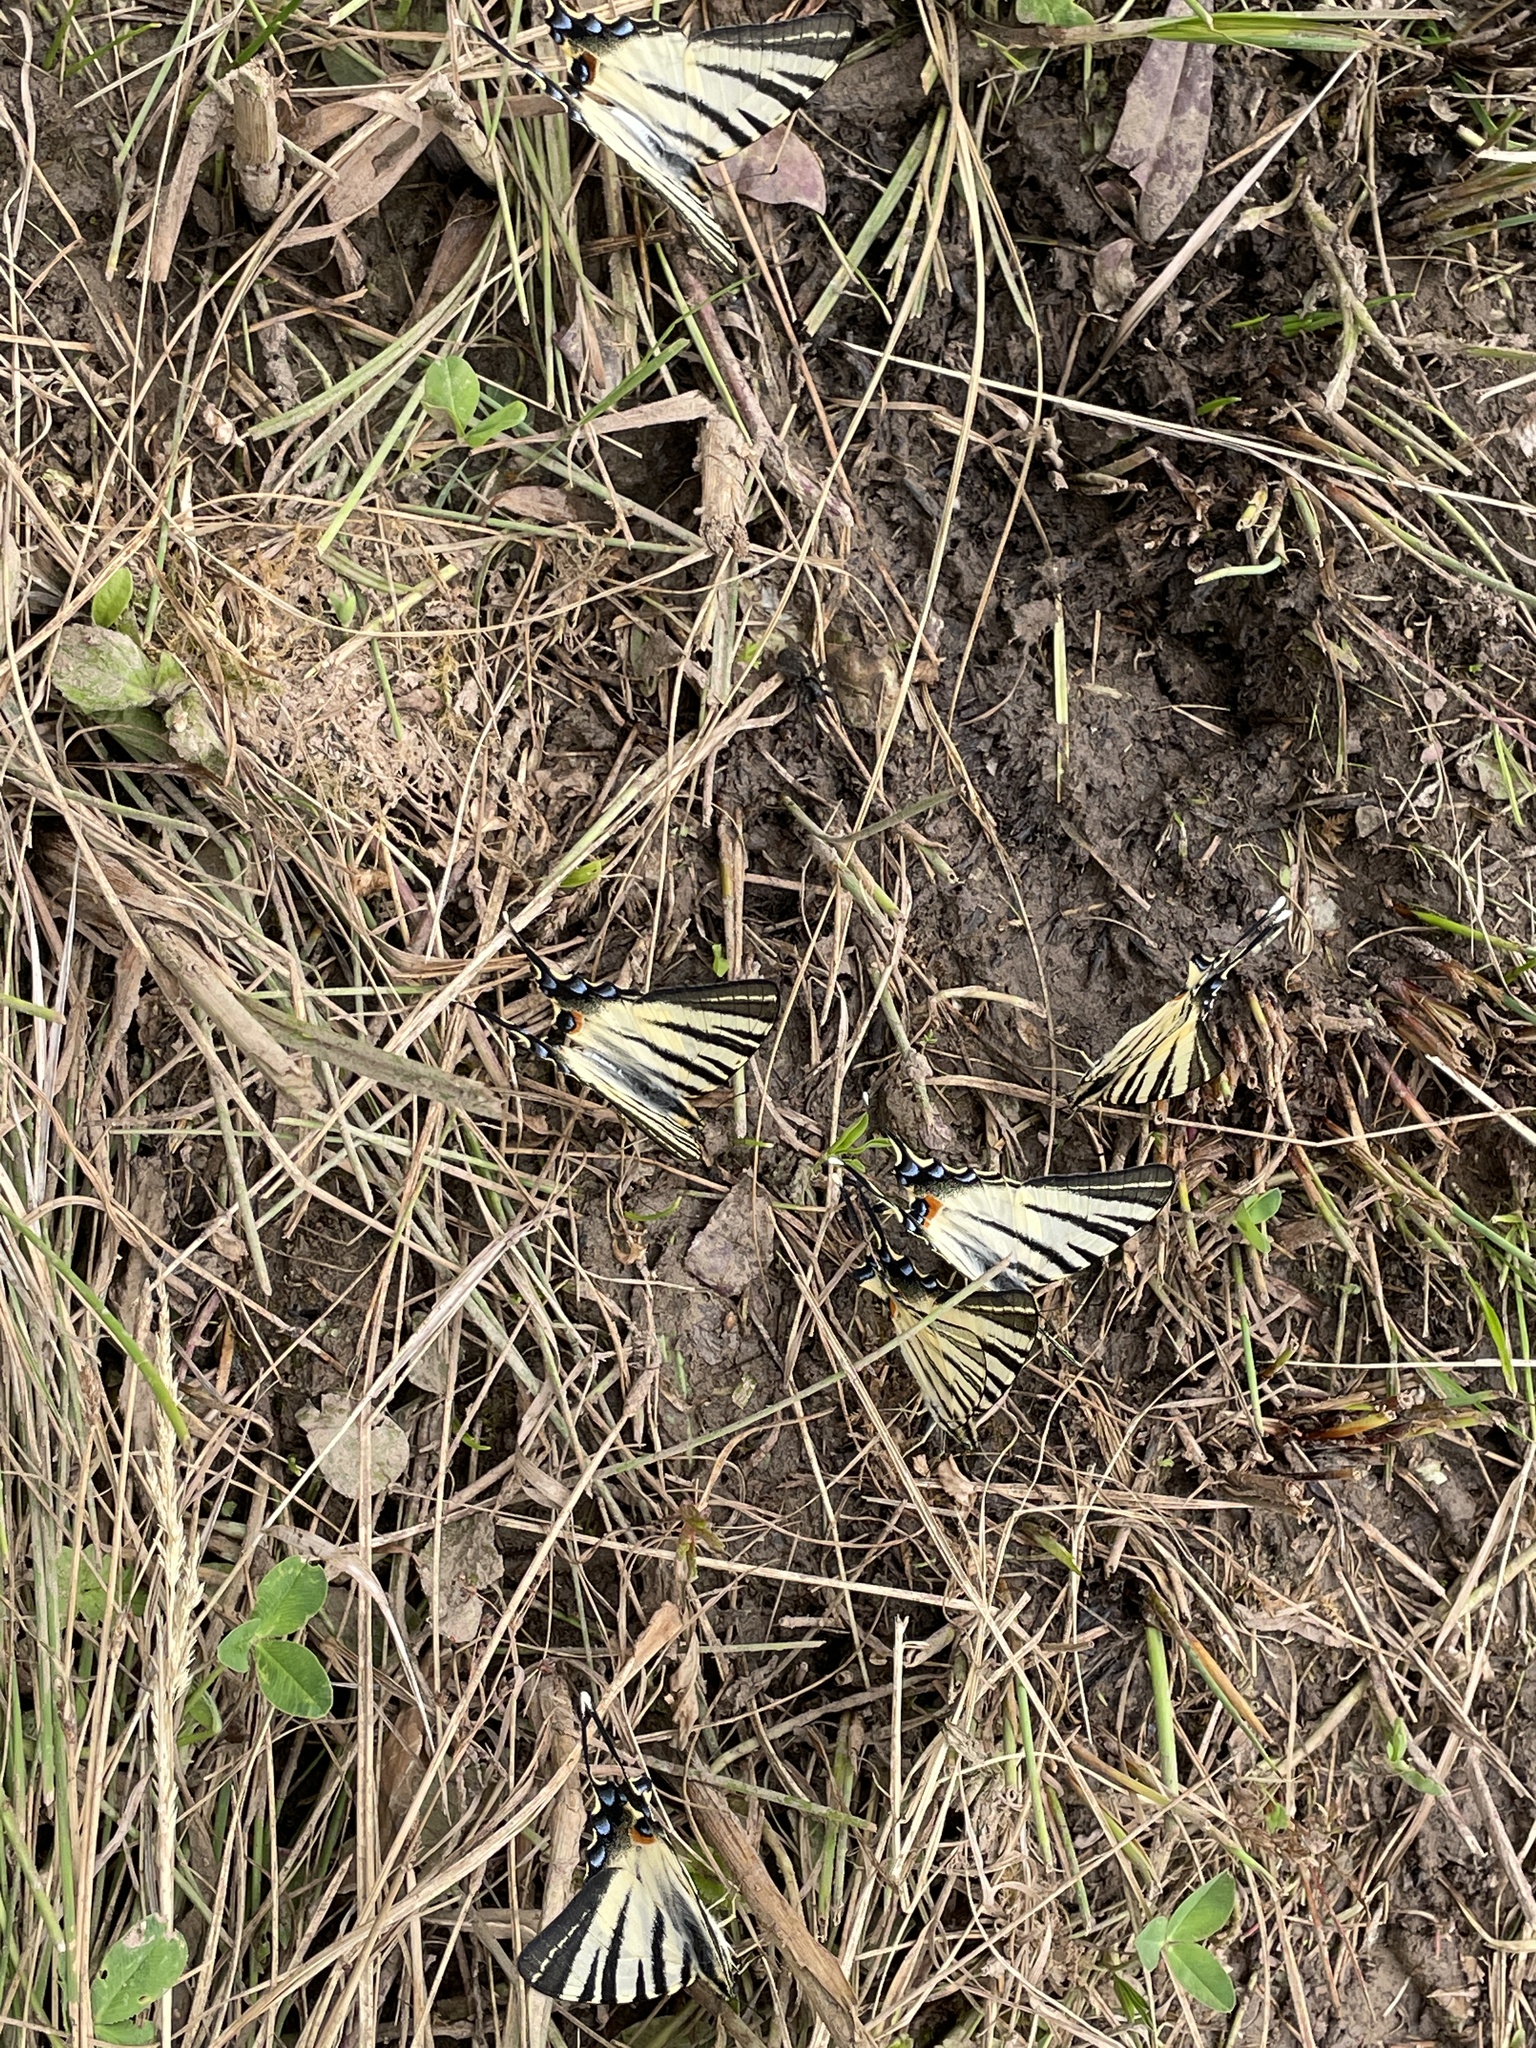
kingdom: Animalia
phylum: Arthropoda
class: Insecta
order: Lepidoptera
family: Papilionidae
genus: Iphiclides
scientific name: Iphiclides podalirius
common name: Scarce swallowtail
